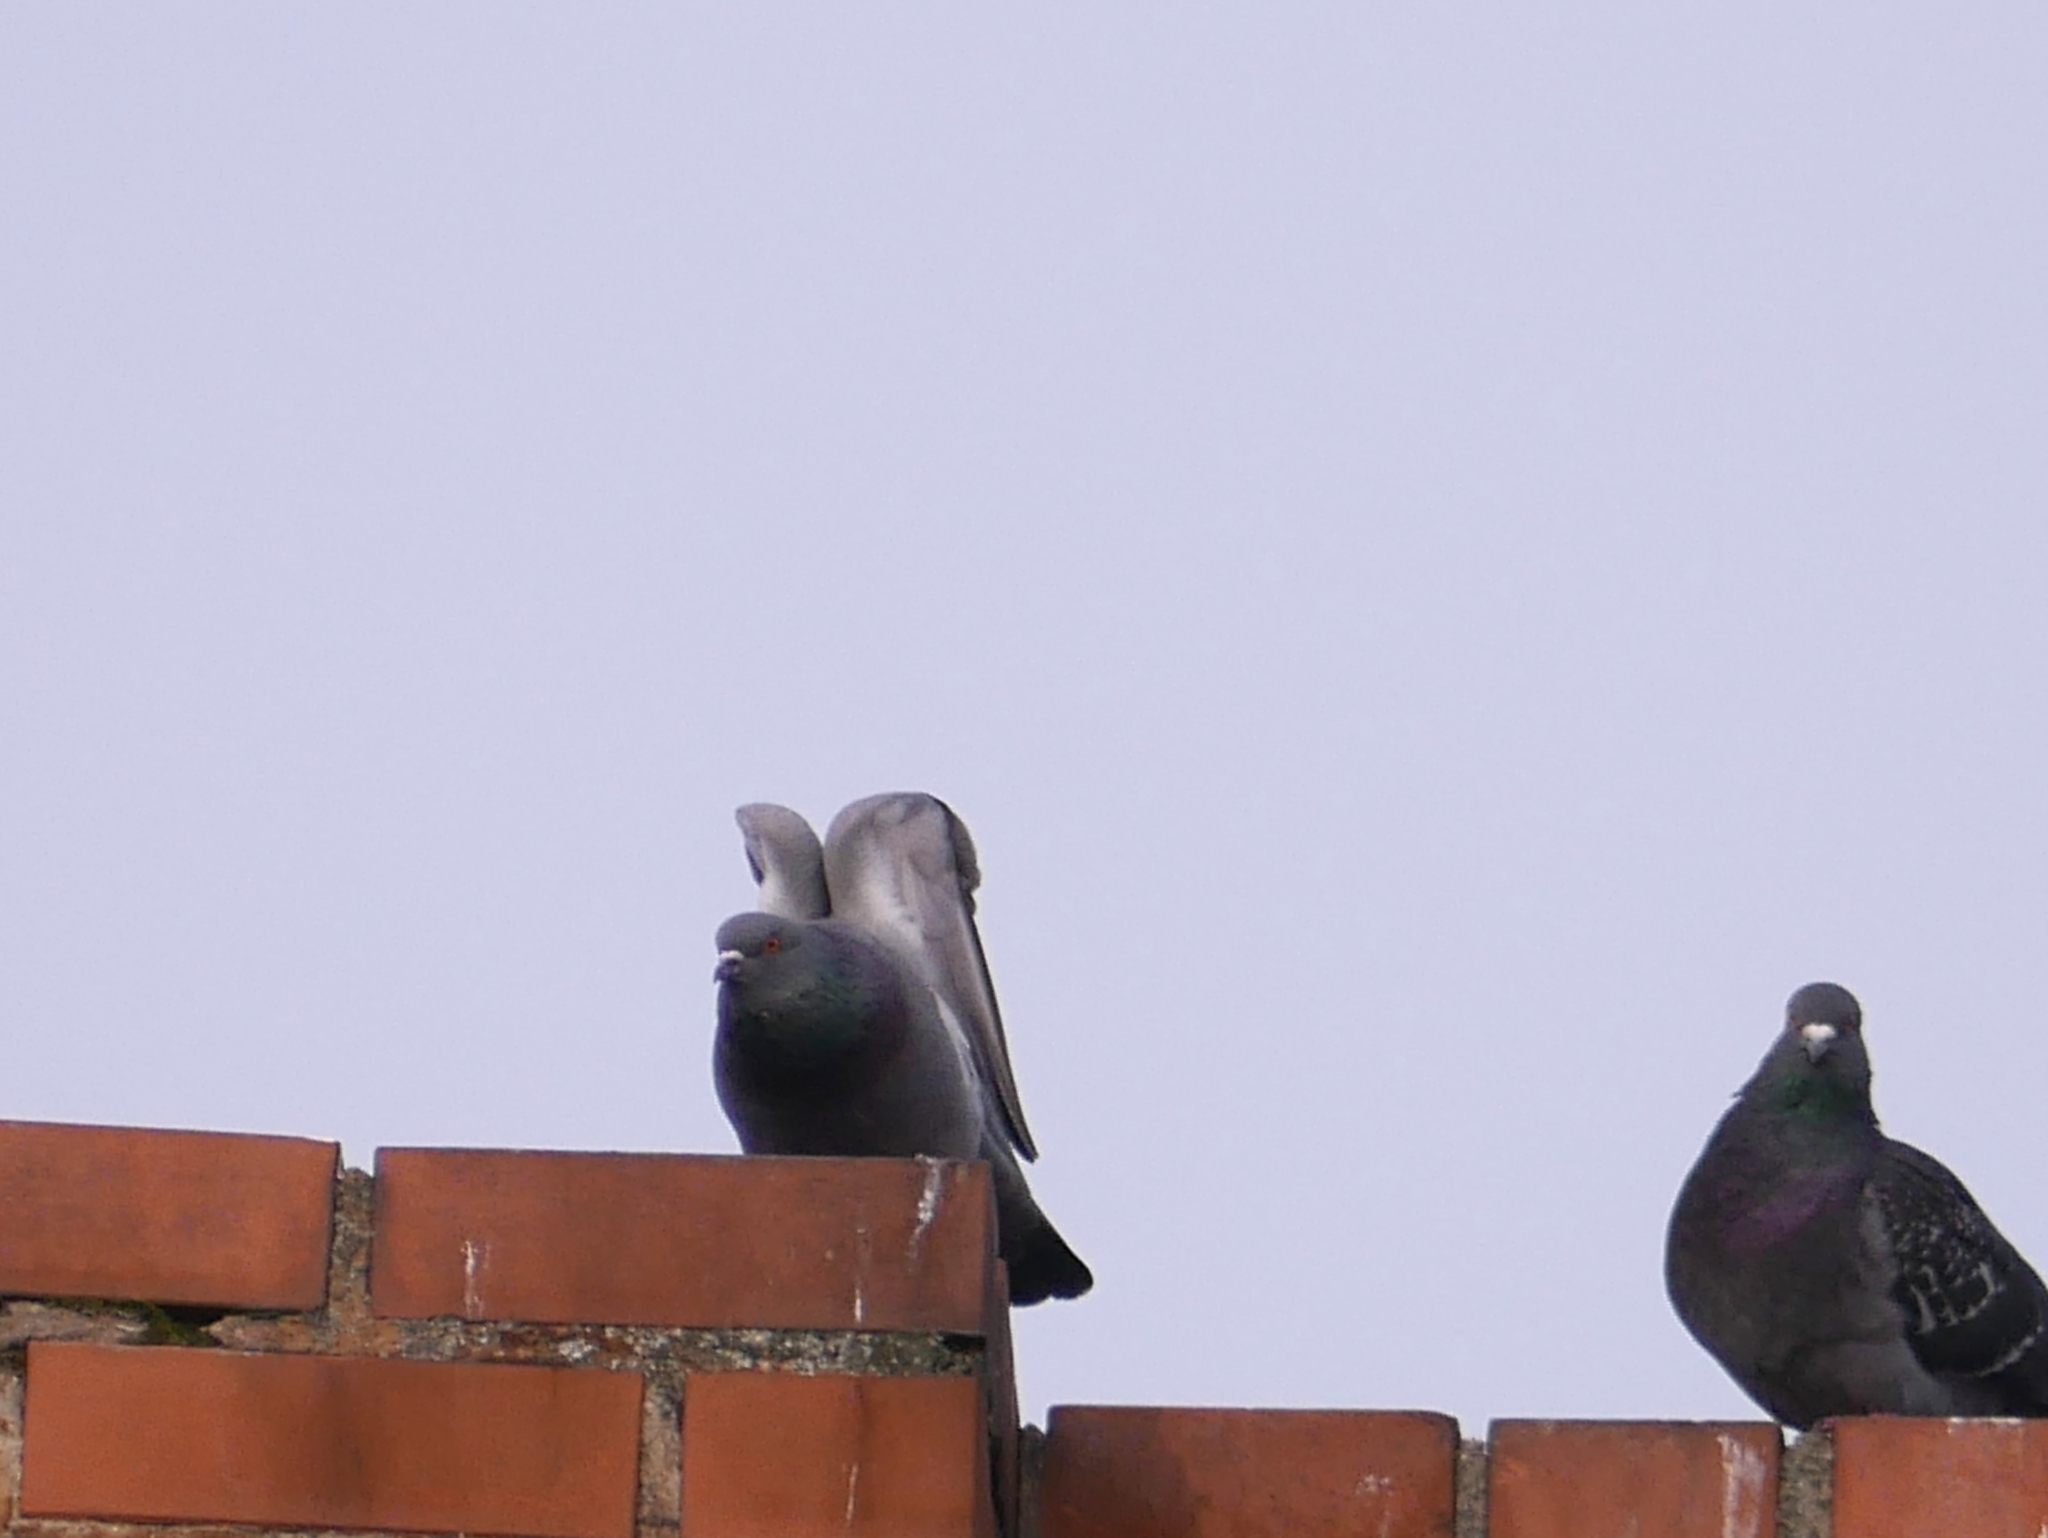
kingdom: Animalia
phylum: Chordata
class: Aves
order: Columbiformes
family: Columbidae
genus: Columba
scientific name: Columba livia
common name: Rock pigeon
